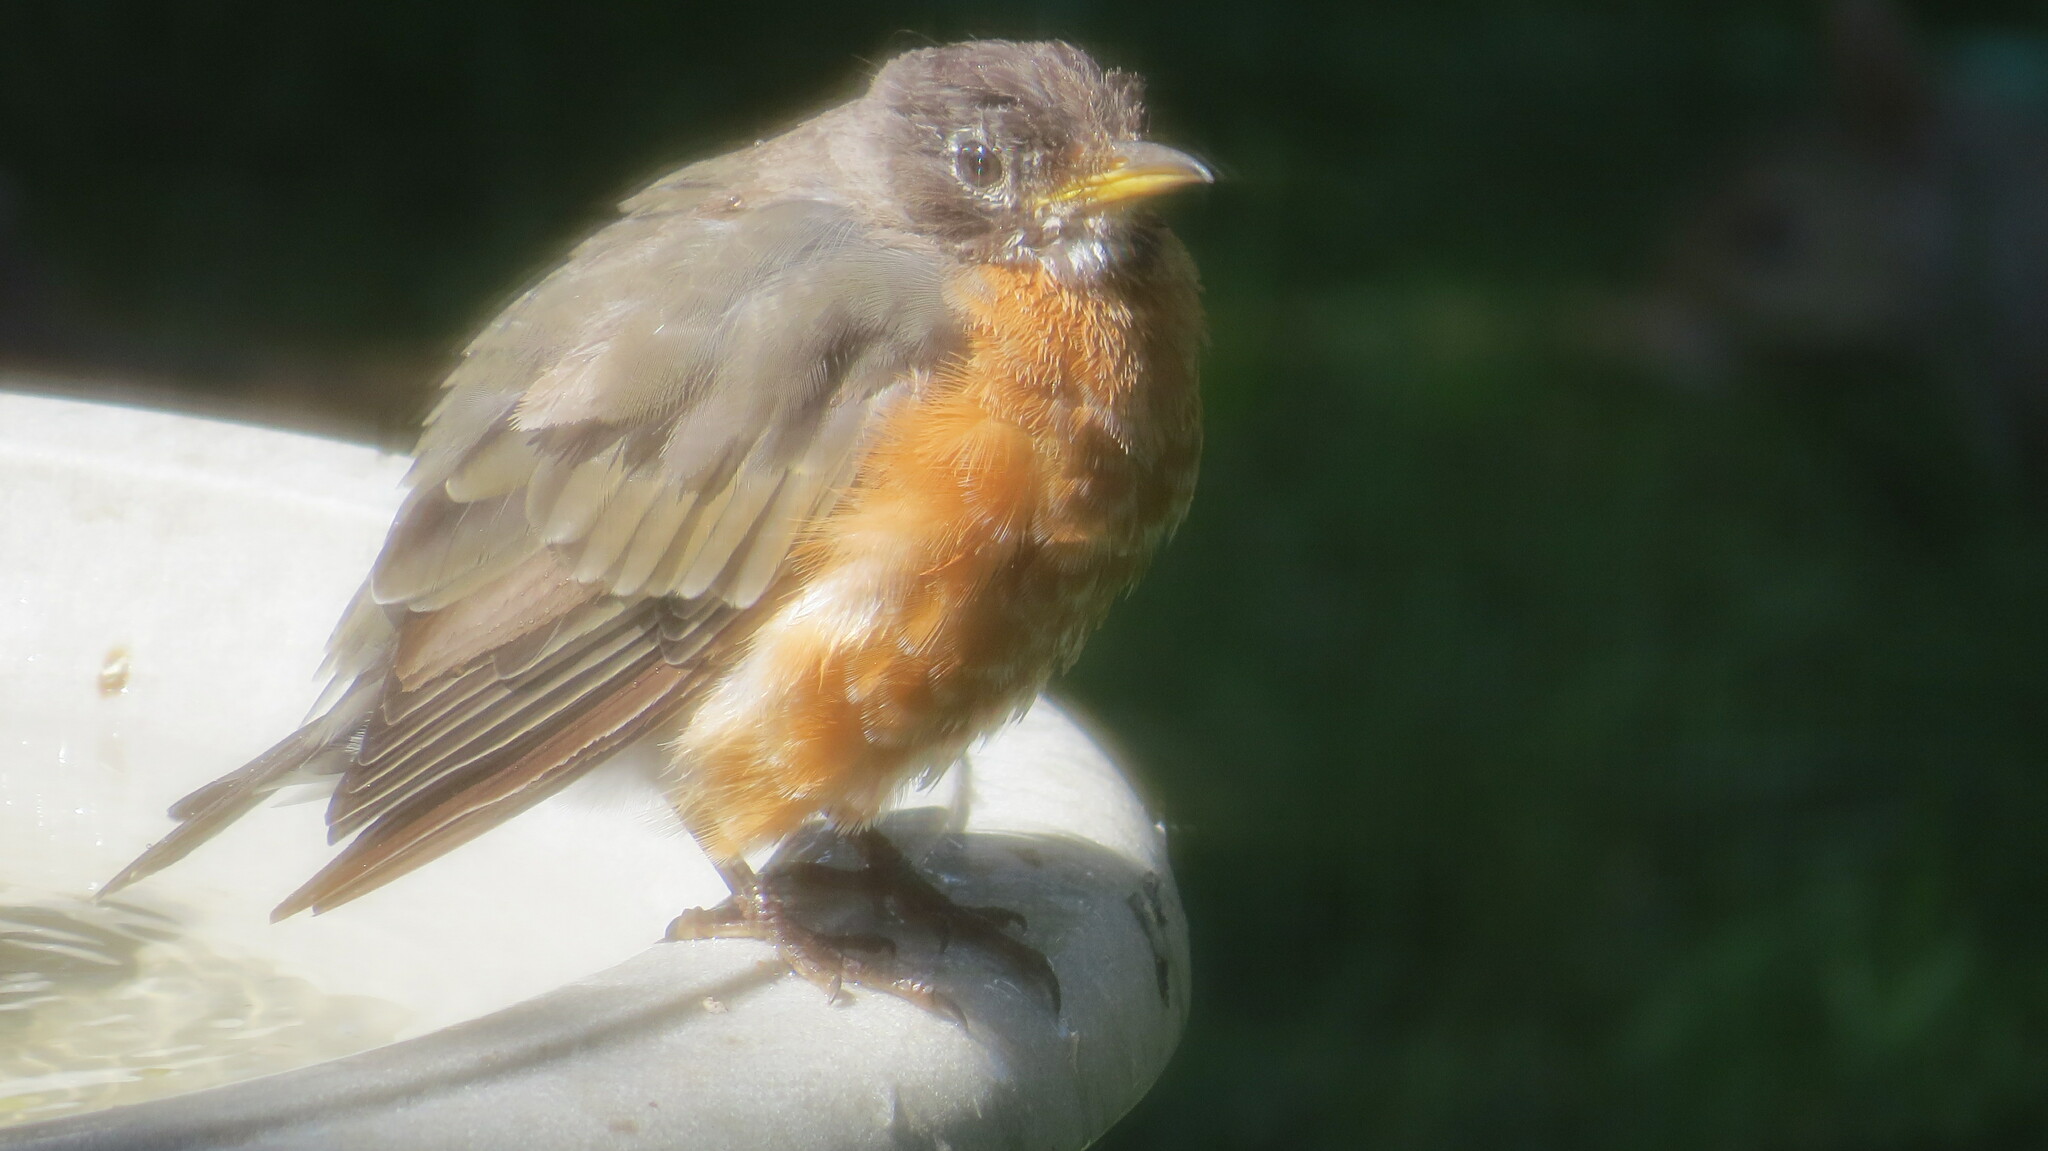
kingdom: Animalia
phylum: Chordata
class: Aves
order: Passeriformes
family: Turdidae
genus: Turdus
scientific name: Turdus migratorius
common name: American robin
